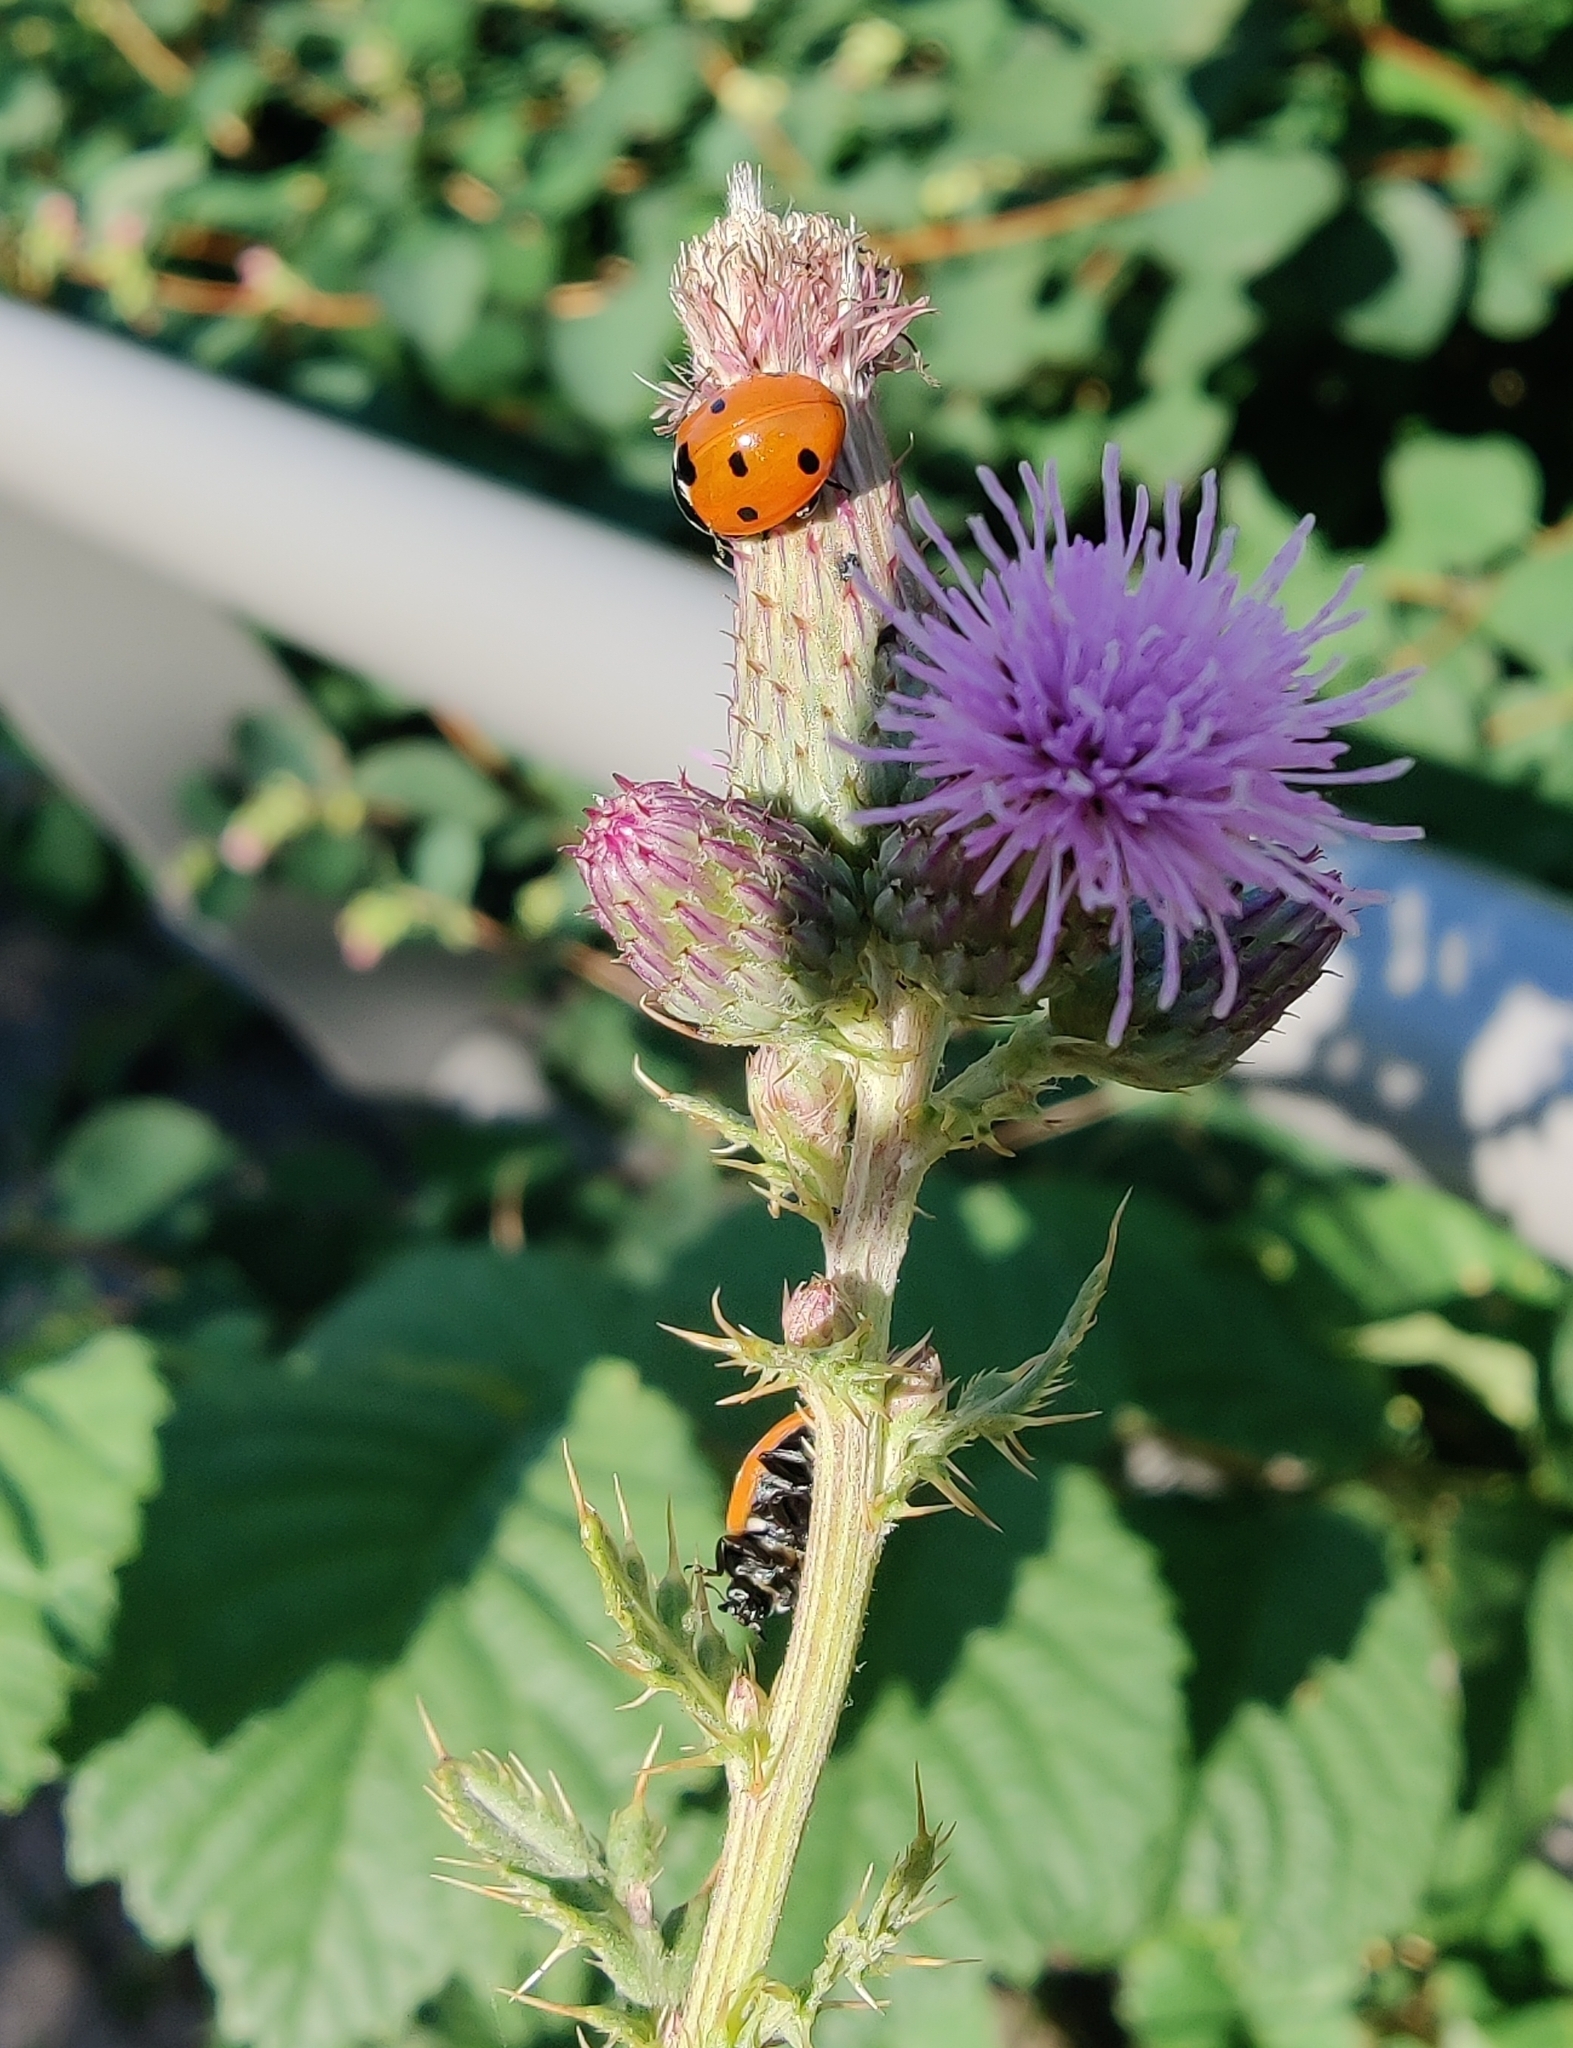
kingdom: Animalia
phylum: Arthropoda
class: Insecta
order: Coleoptera
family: Coccinellidae
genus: Coccinella
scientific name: Coccinella septempunctata
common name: Sevenspotted lady beetle
